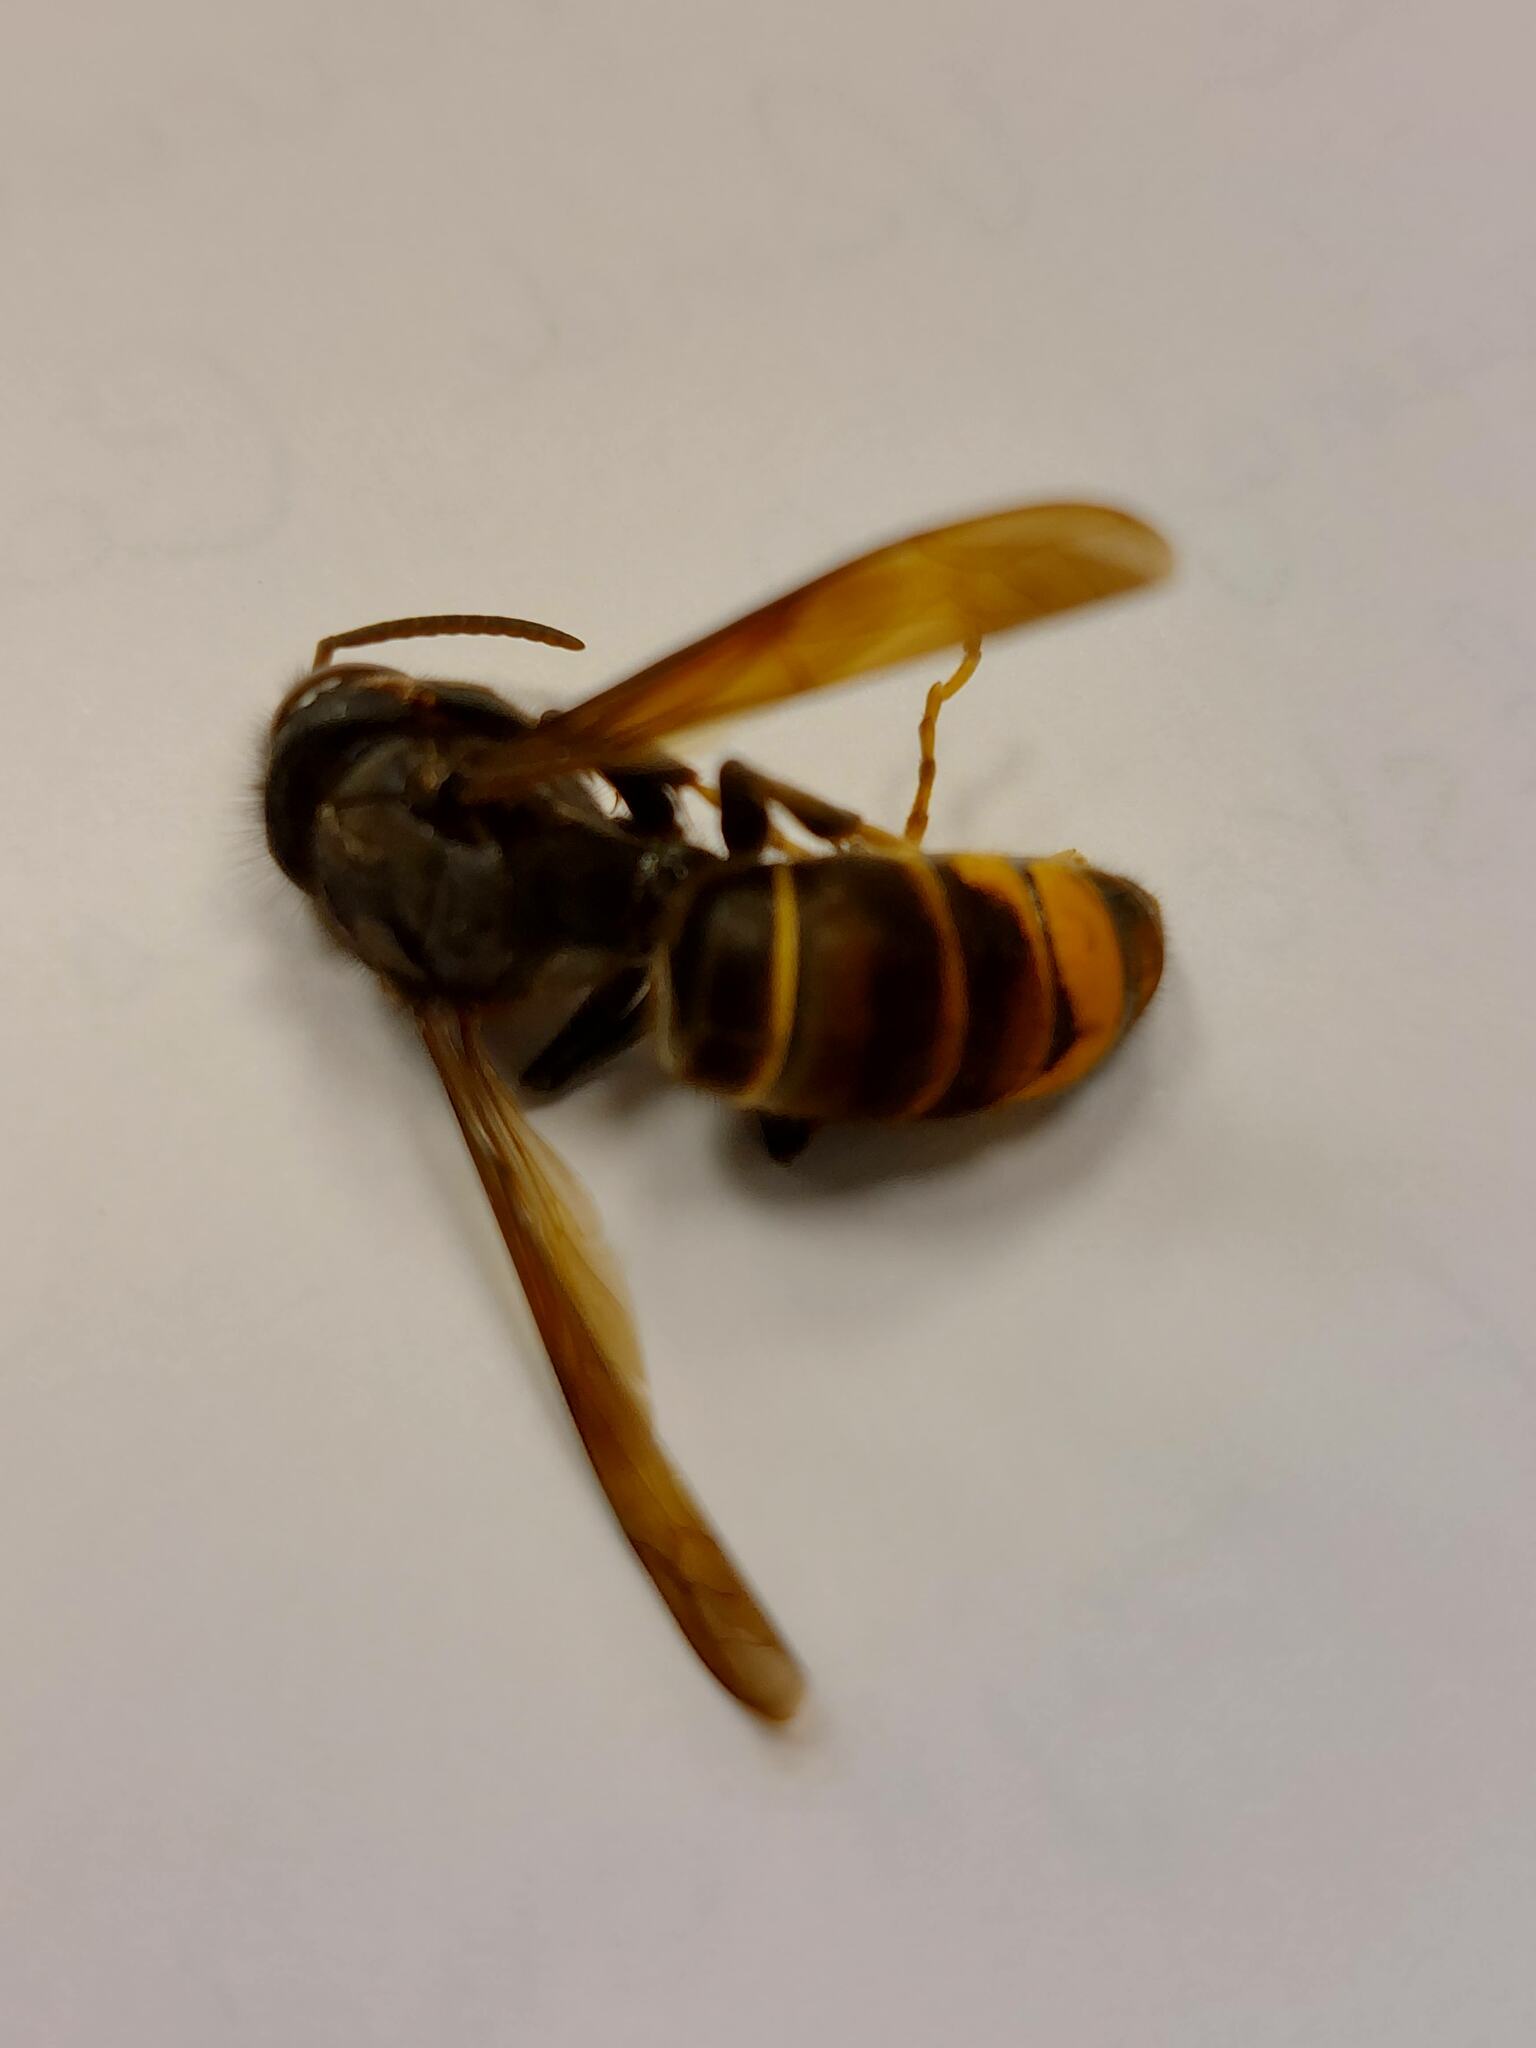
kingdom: Animalia
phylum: Arthropoda
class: Insecta
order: Hymenoptera
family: Vespidae
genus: Vespa
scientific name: Vespa velutina
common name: Asian hornet
